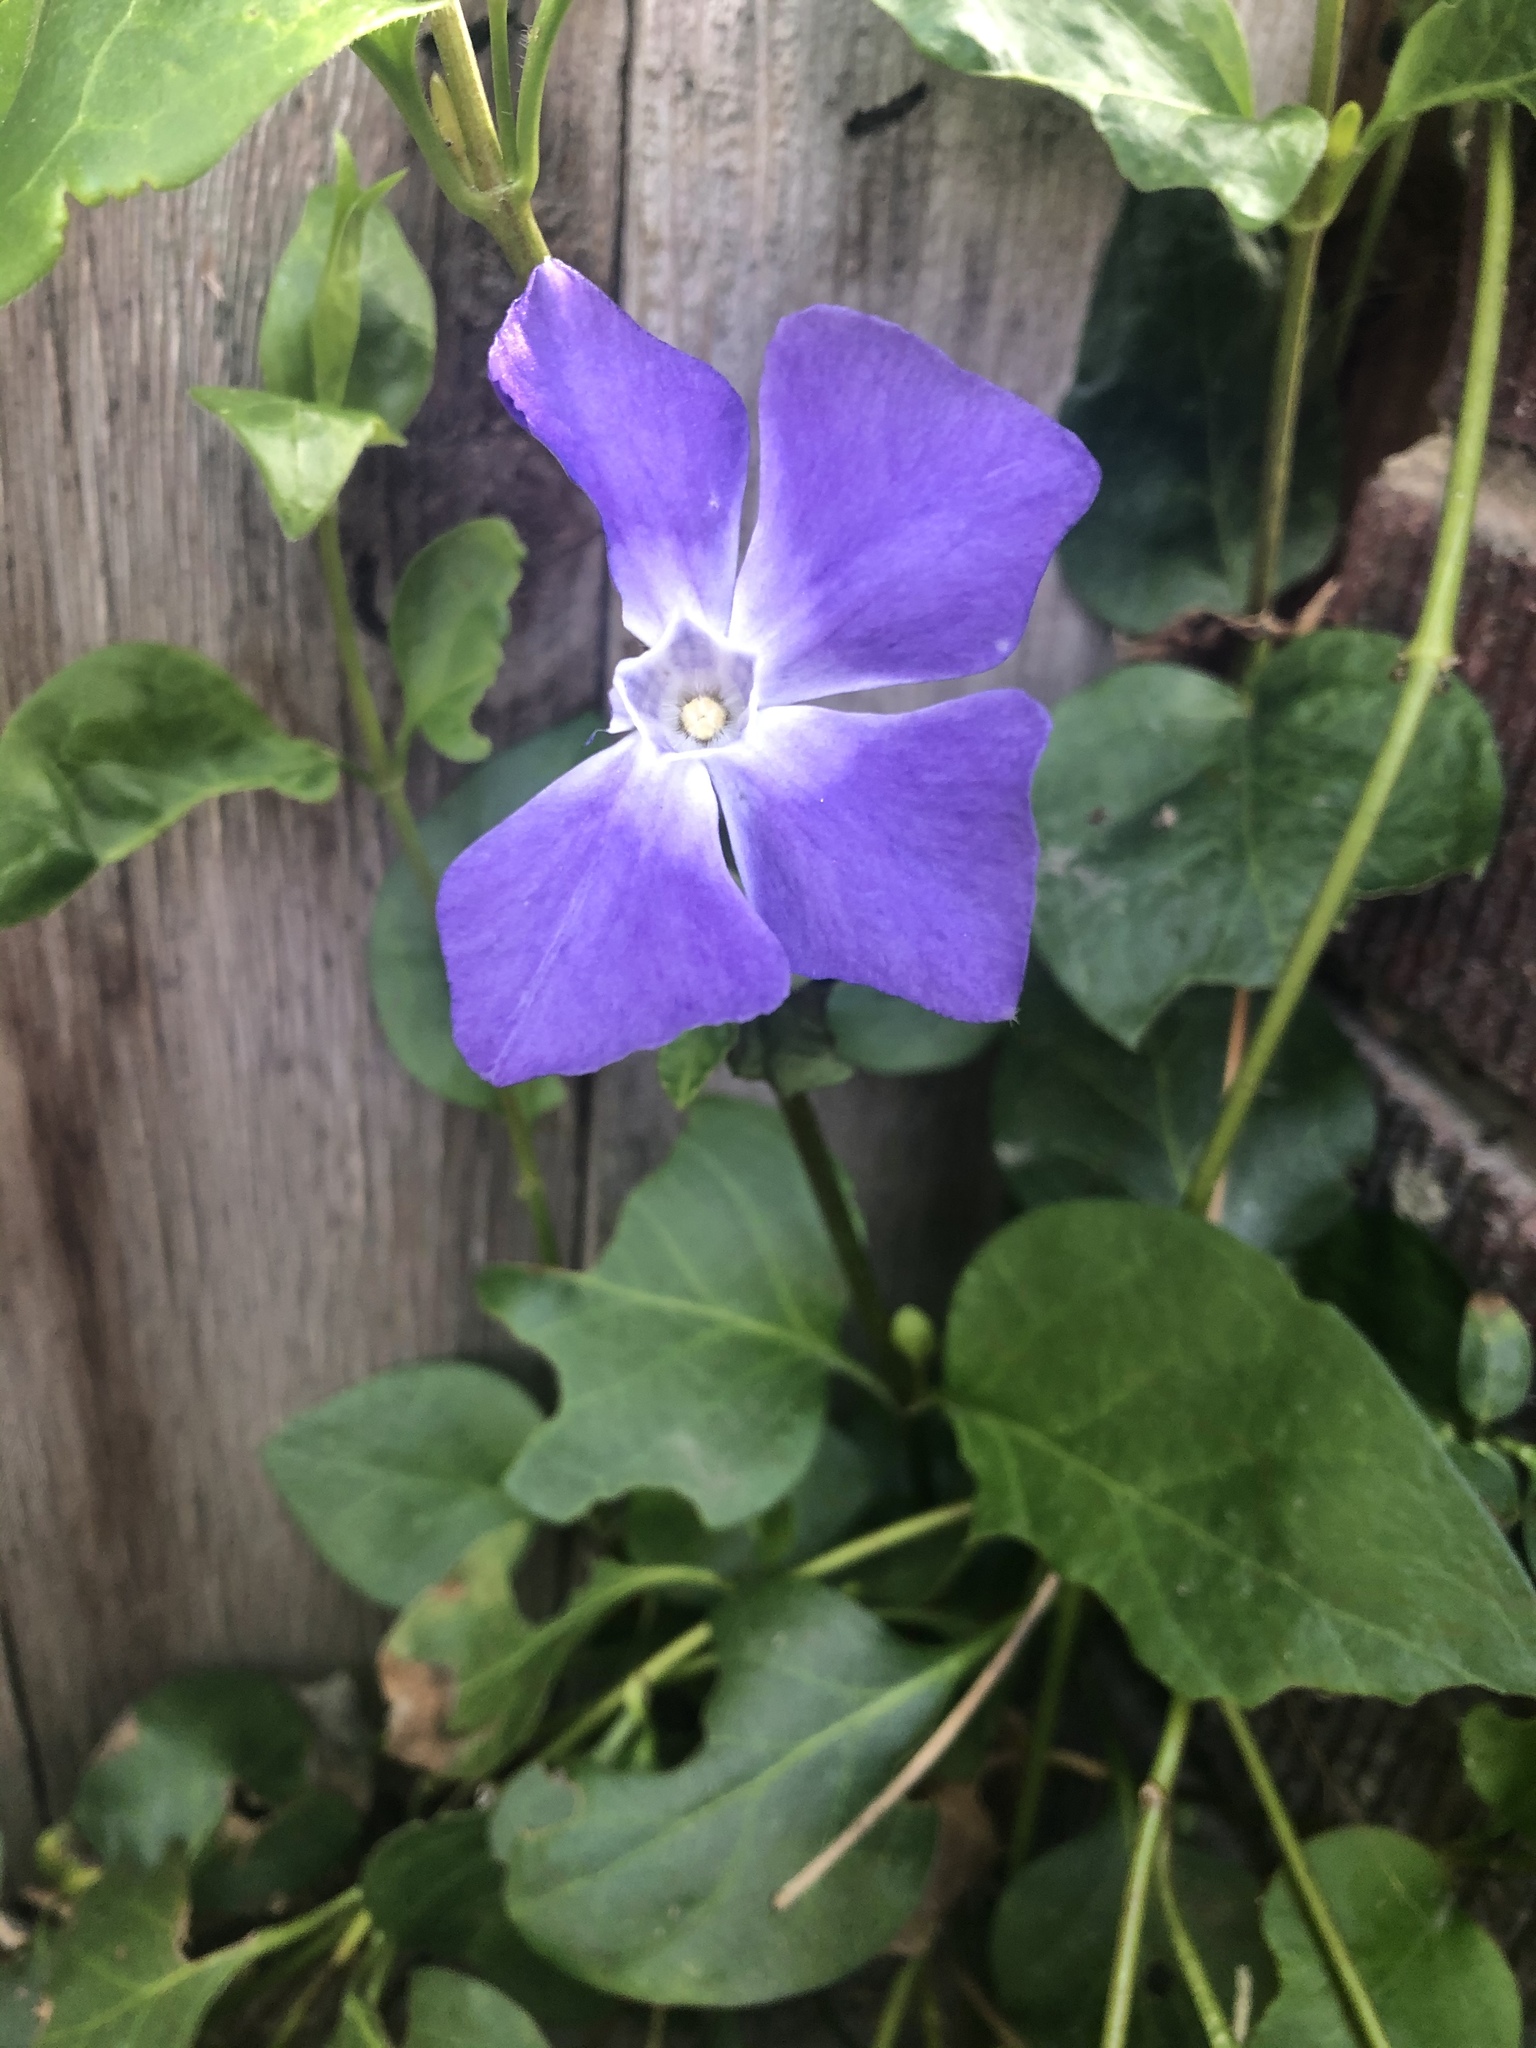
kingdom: Plantae
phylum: Tracheophyta
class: Magnoliopsida
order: Gentianales
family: Apocynaceae
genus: Vinca
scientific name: Vinca major
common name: Greater periwinkle
